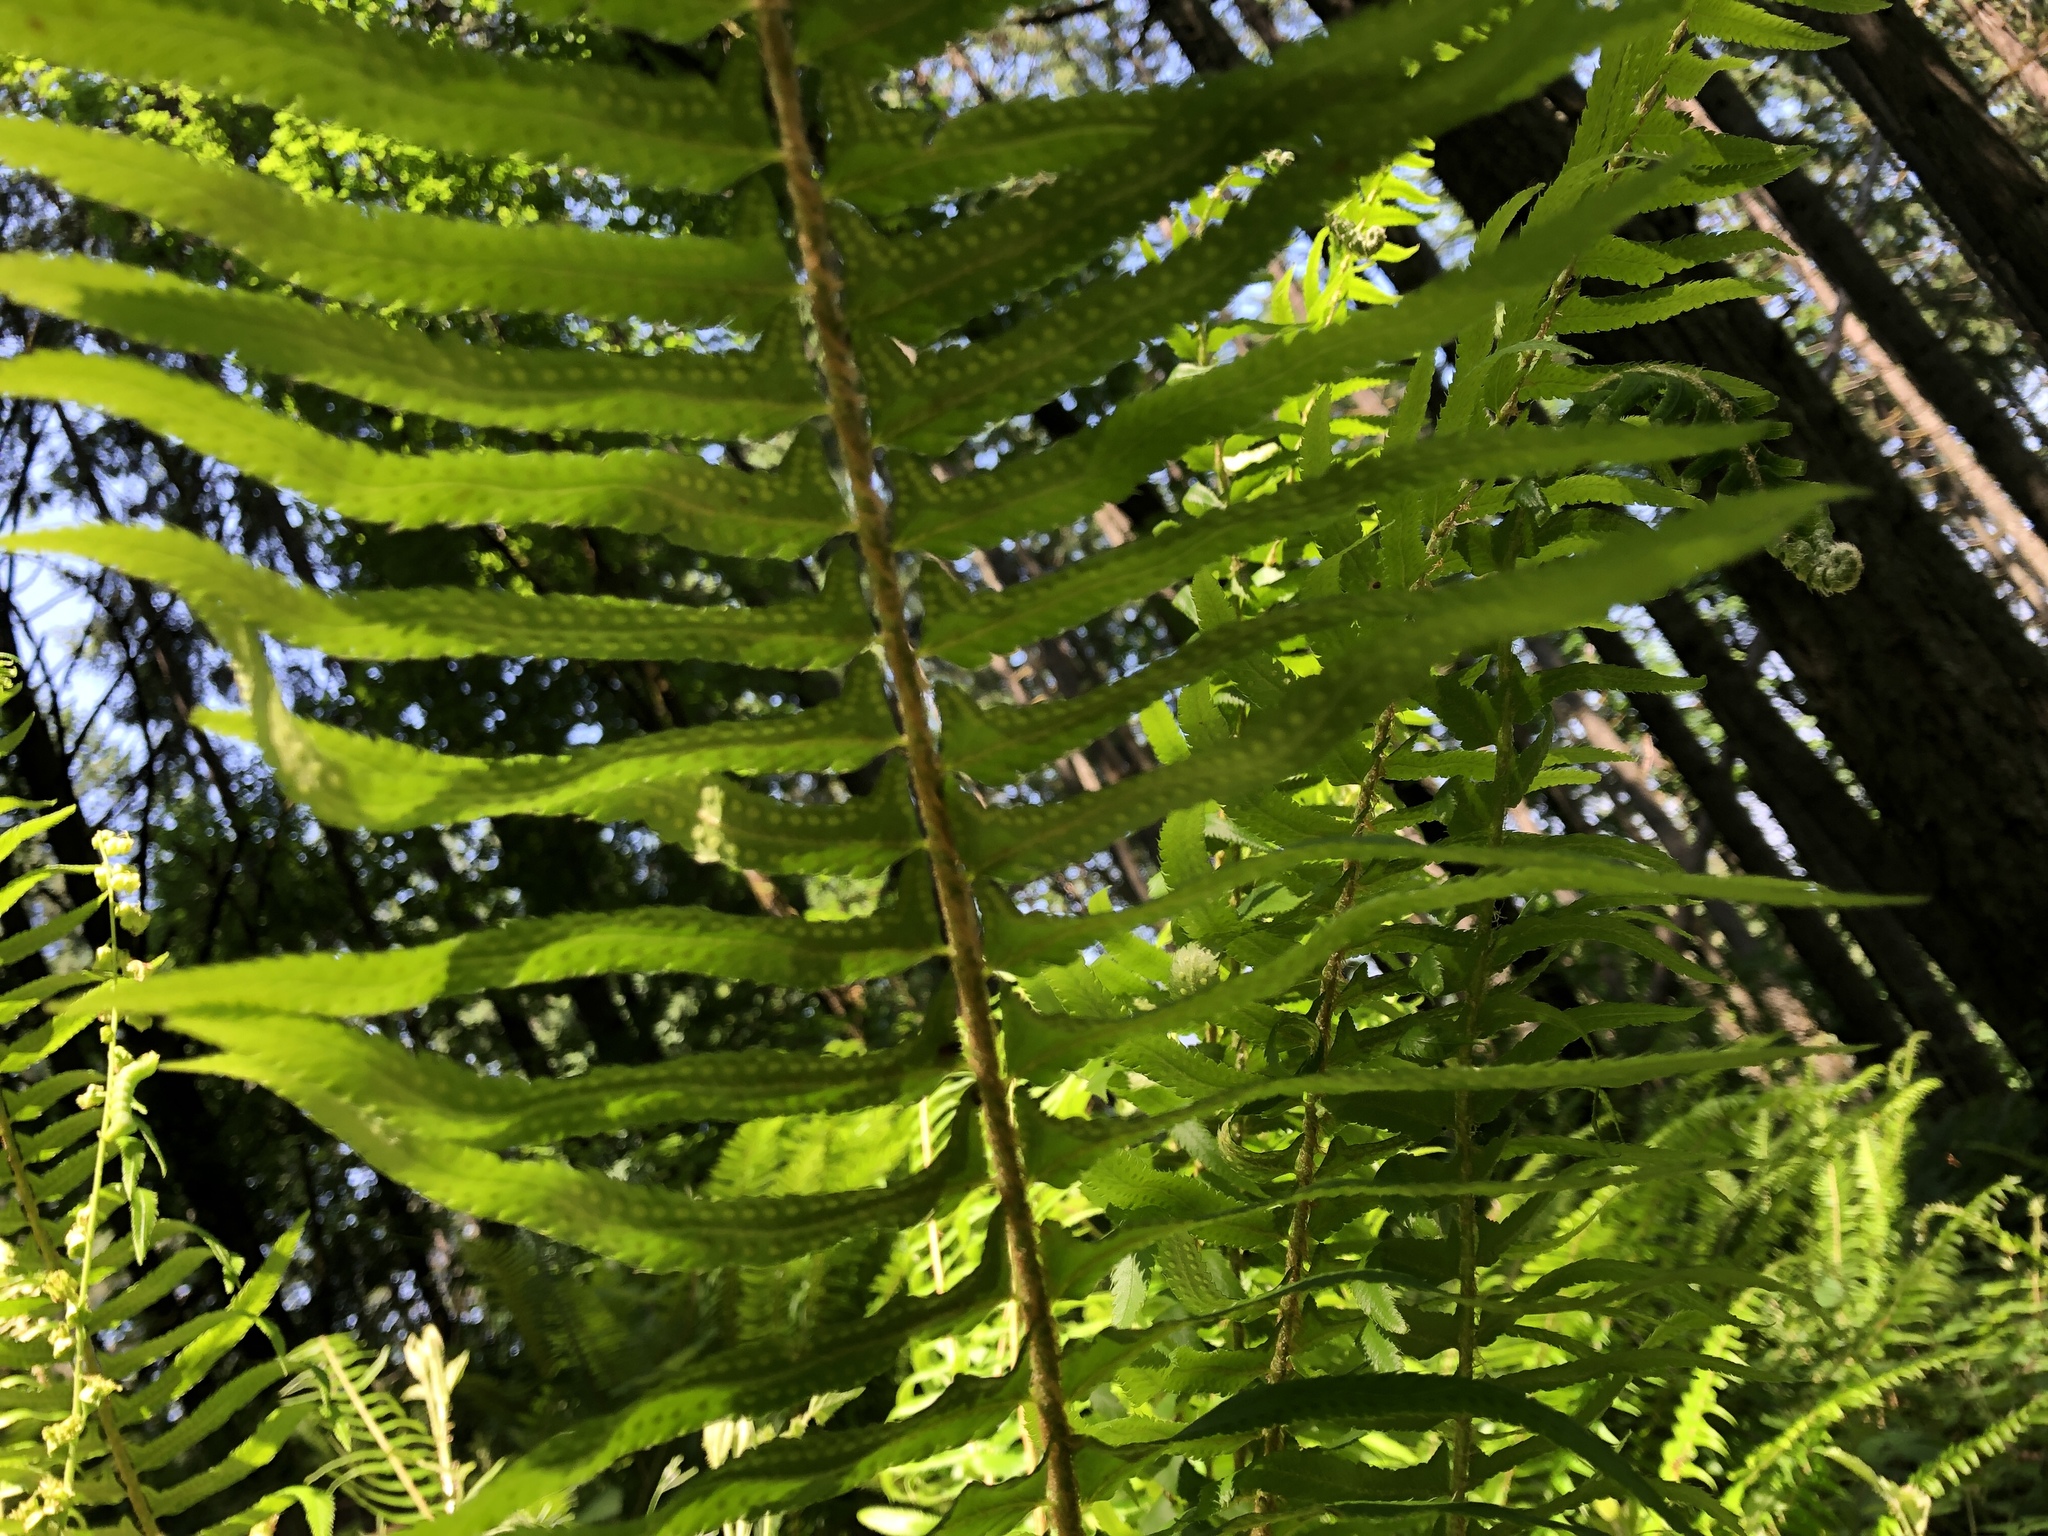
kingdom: Plantae
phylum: Tracheophyta
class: Polypodiopsida
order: Polypodiales
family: Dryopteridaceae
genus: Polystichum
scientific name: Polystichum munitum
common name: Western sword-fern
